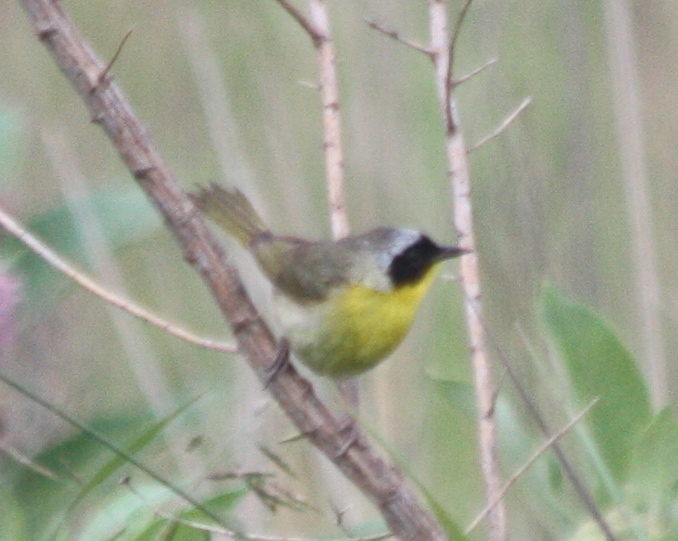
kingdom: Animalia
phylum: Chordata
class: Aves
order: Passeriformes
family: Parulidae
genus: Geothlypis
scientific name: Geothlypis trichas
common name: Common yellowthroat
